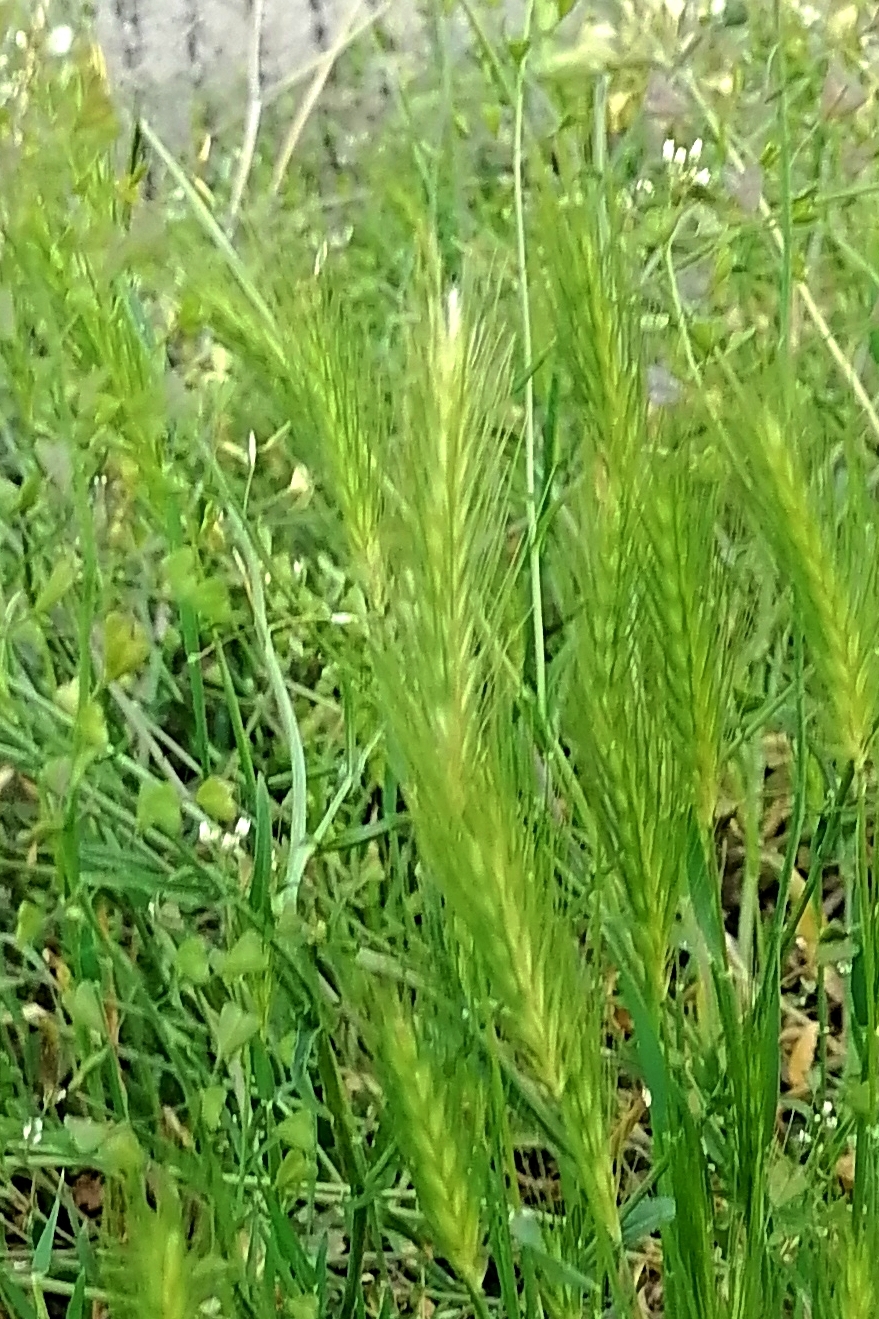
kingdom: Plantae
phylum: Tracheophyta
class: Liliopsida
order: Poales
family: Poaceae
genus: Hordeum
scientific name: Hordeum murinum
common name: Wall barley
